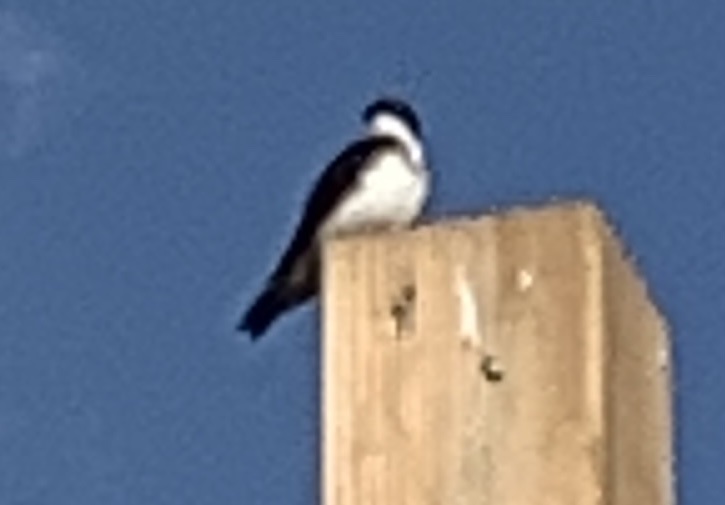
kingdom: Animalia
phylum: Chordata
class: Aves
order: Passeriformes
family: Hirundinidae
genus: Tachycineta
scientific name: Tachycineta bicolor
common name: Tree swallow
